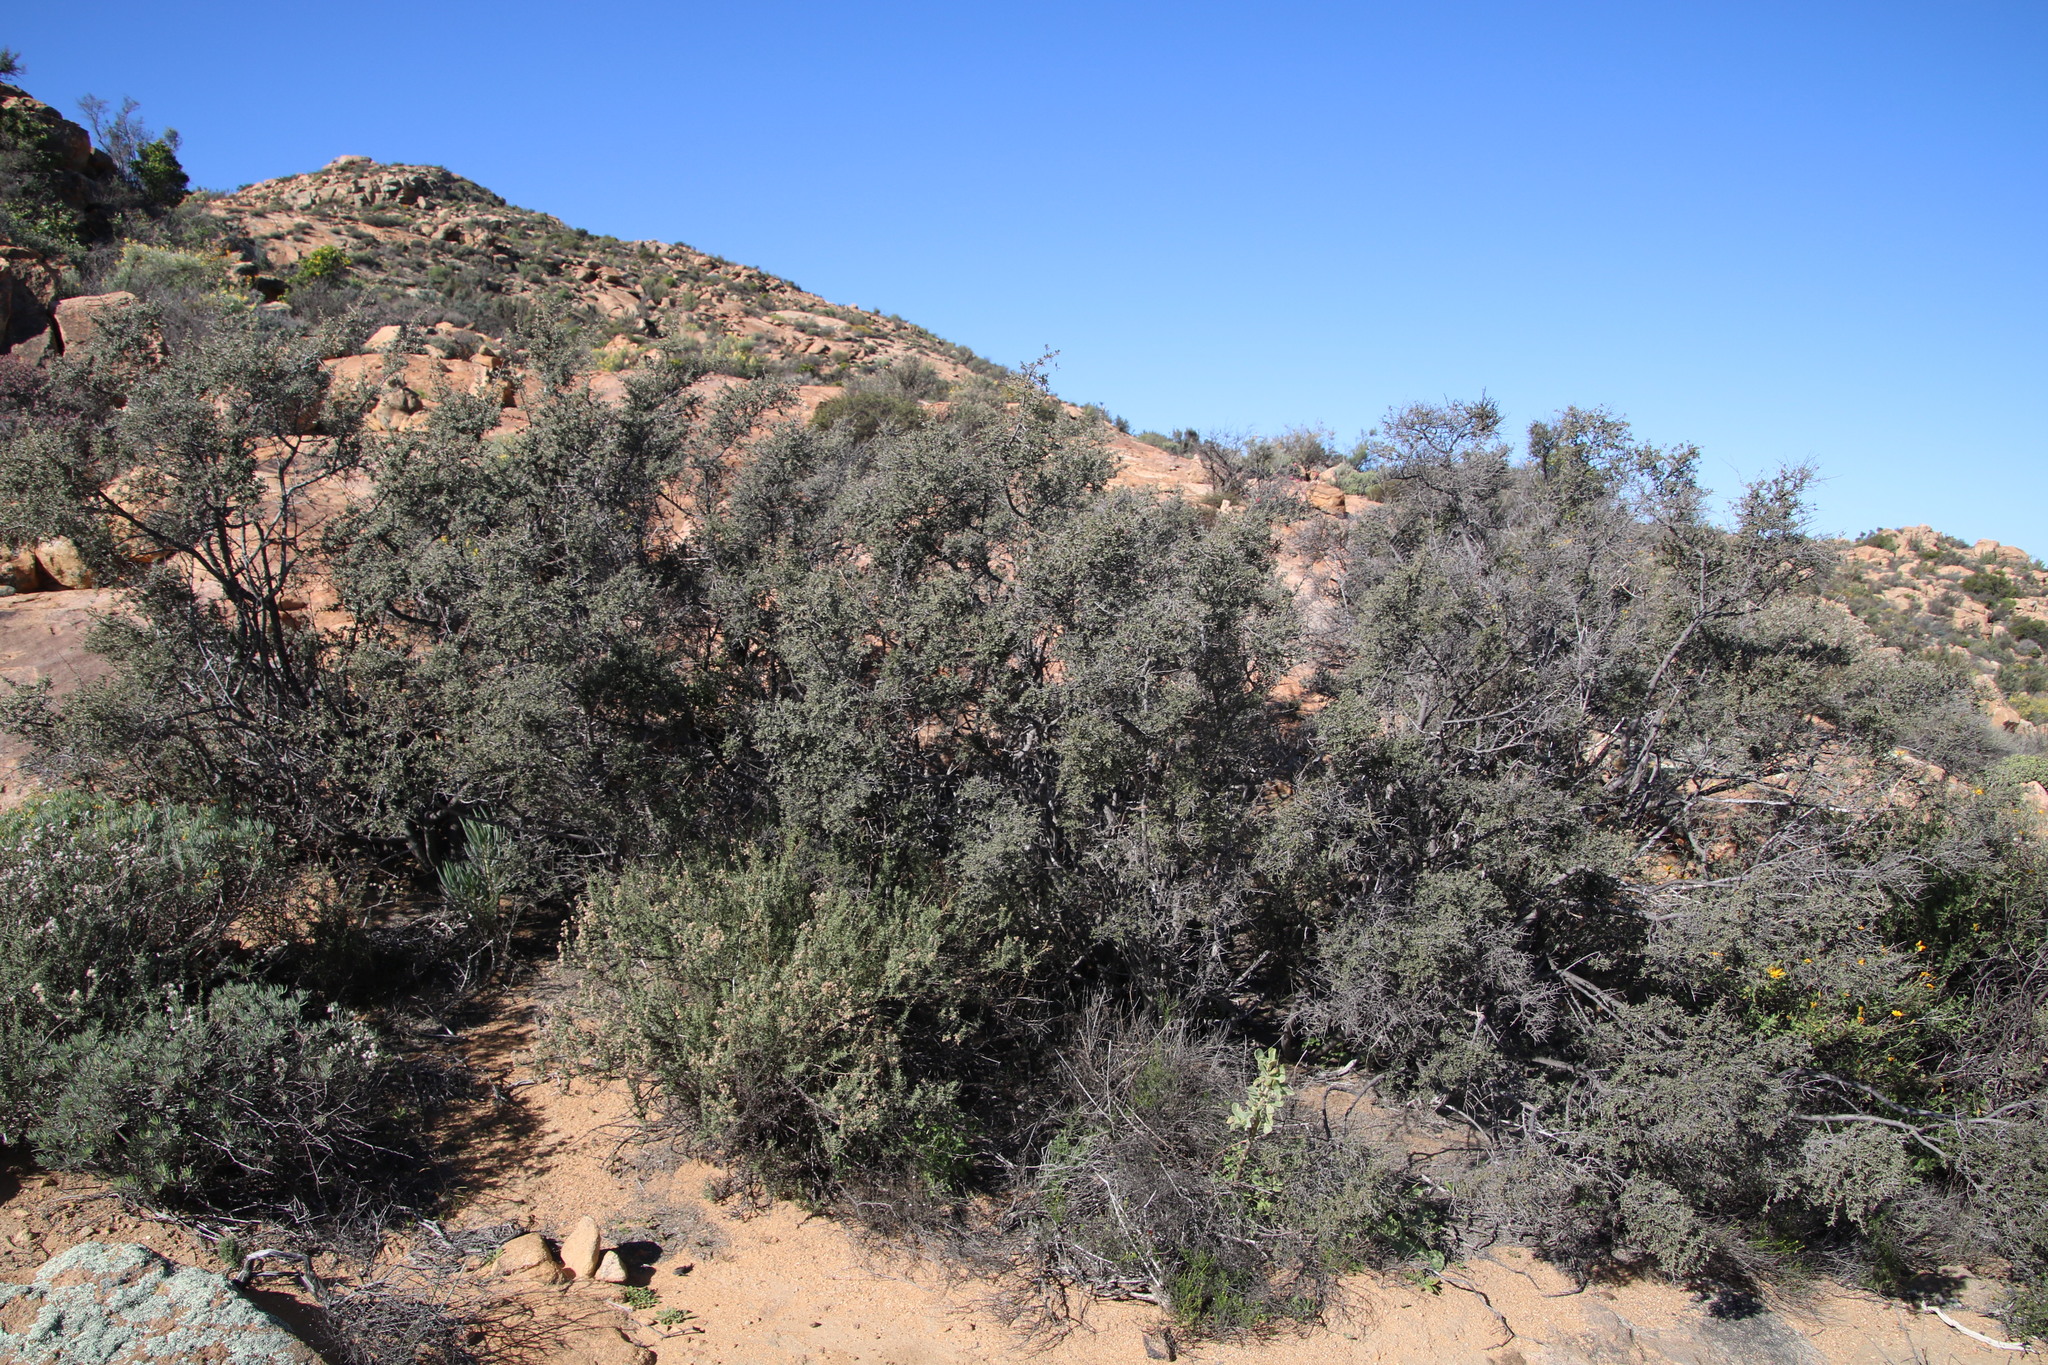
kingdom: Plantae
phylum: Tracheophyta
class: Magnoliopsida
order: Ericales
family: Ebenaceae
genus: Diospyros
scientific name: Diospyros ramulosa
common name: Namaqua fire-sticks
